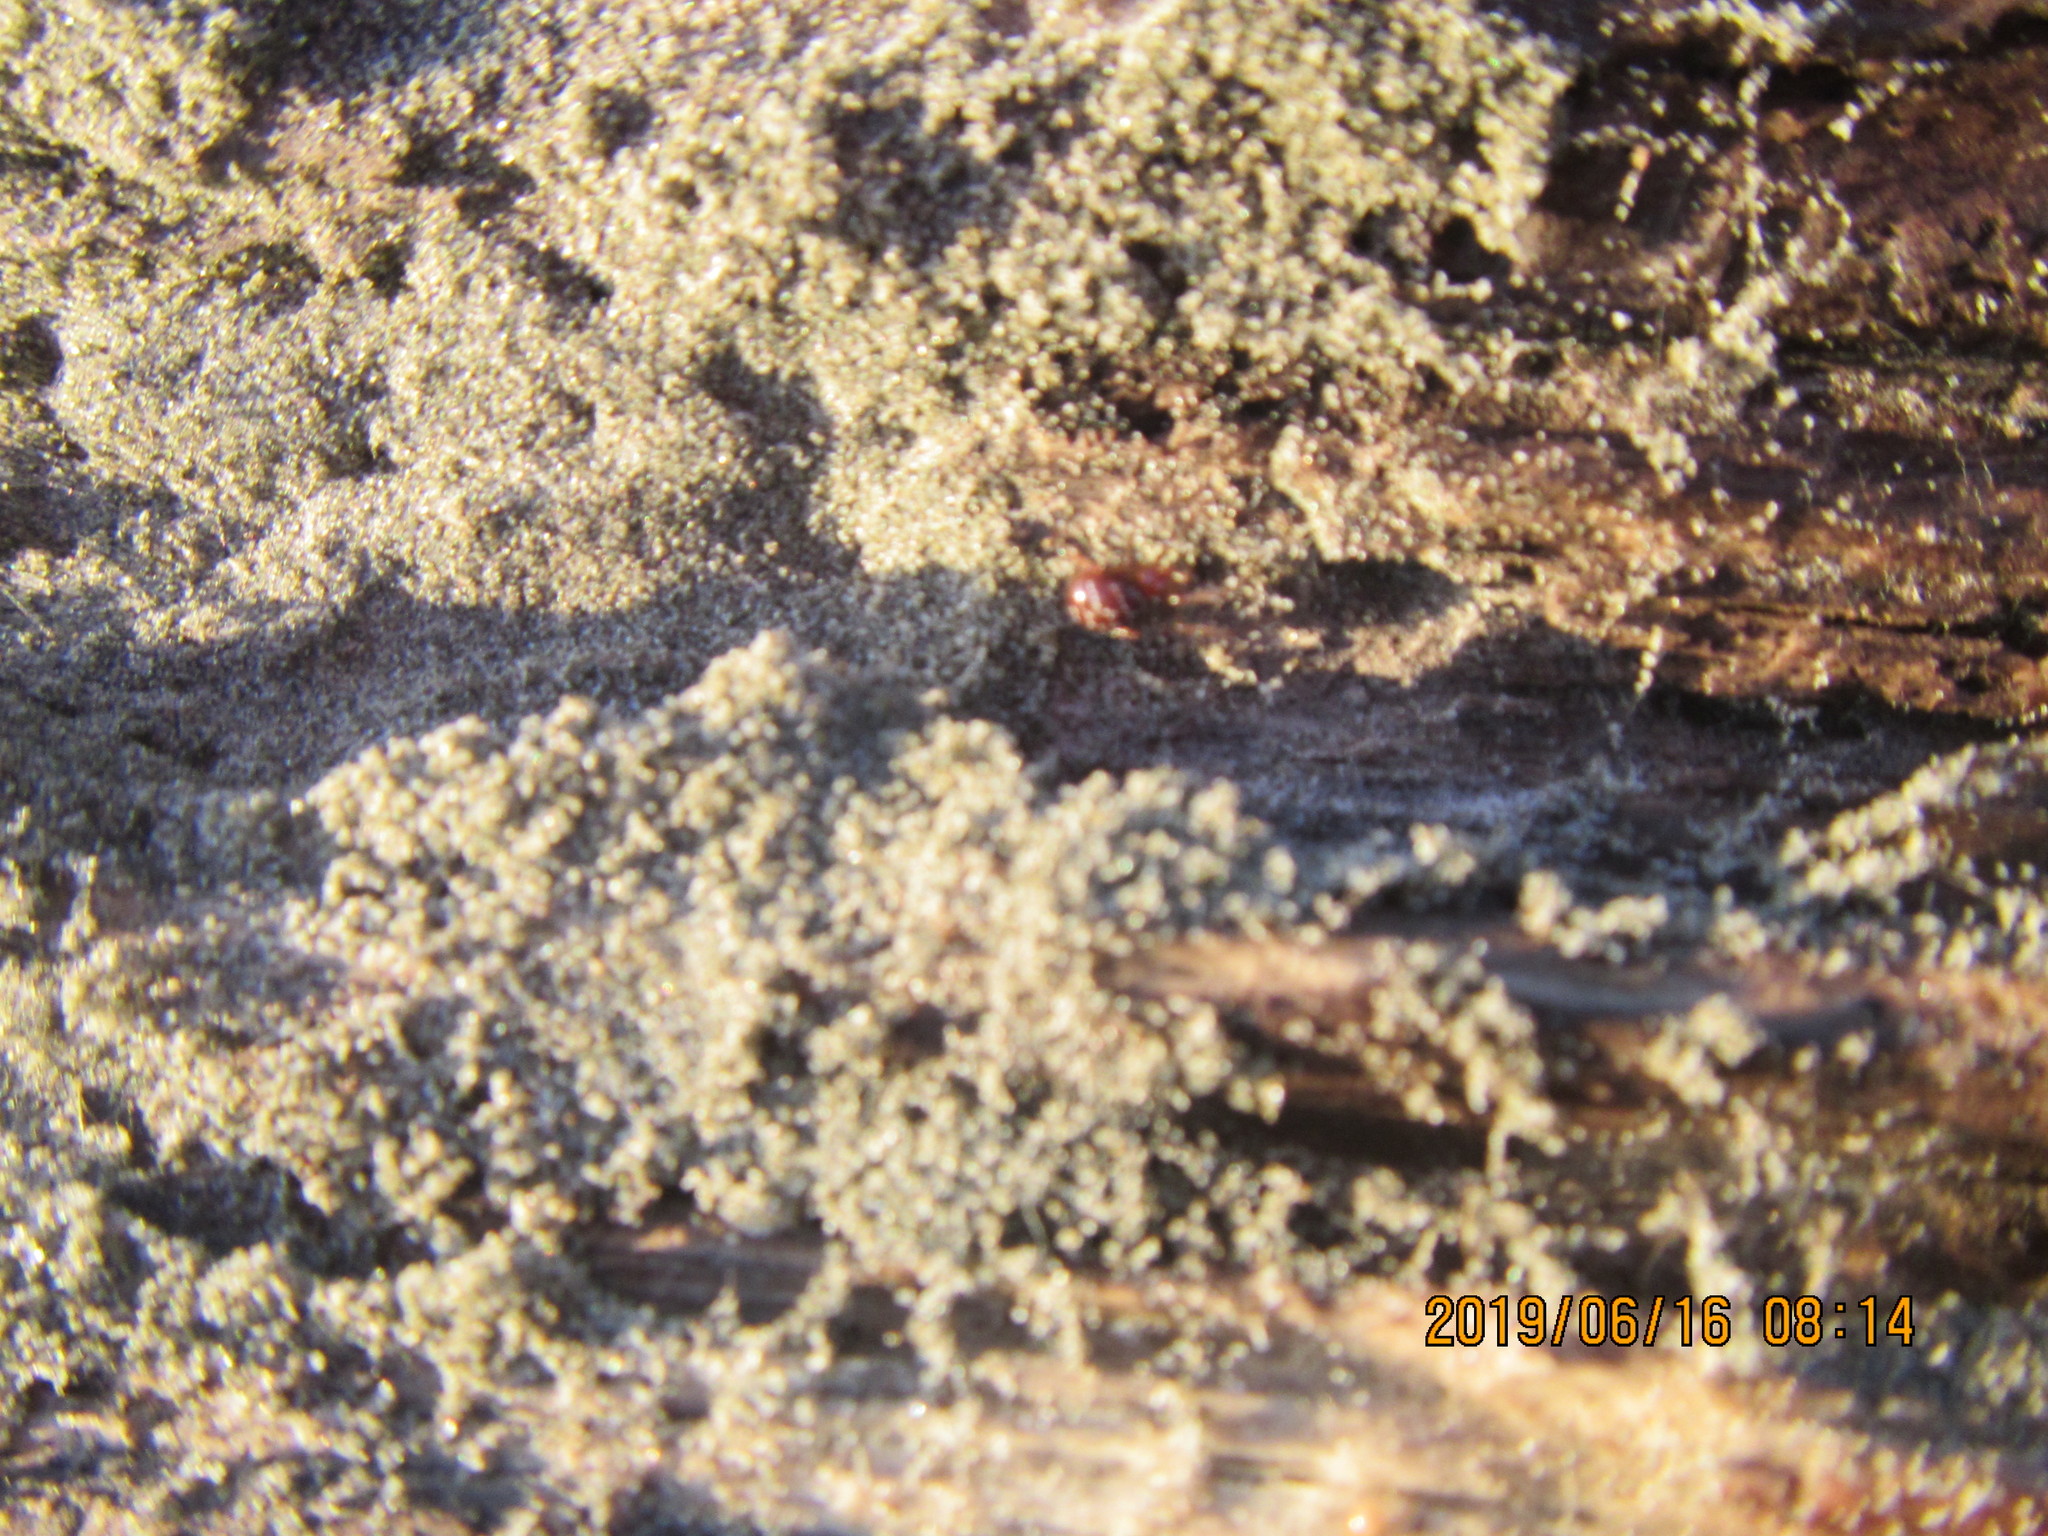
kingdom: Animalia
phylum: Arthropoda
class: Arachnida
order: Araneae
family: Theridiidae
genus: Steatoda
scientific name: Steatoda capensis
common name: Cobweb weaver
